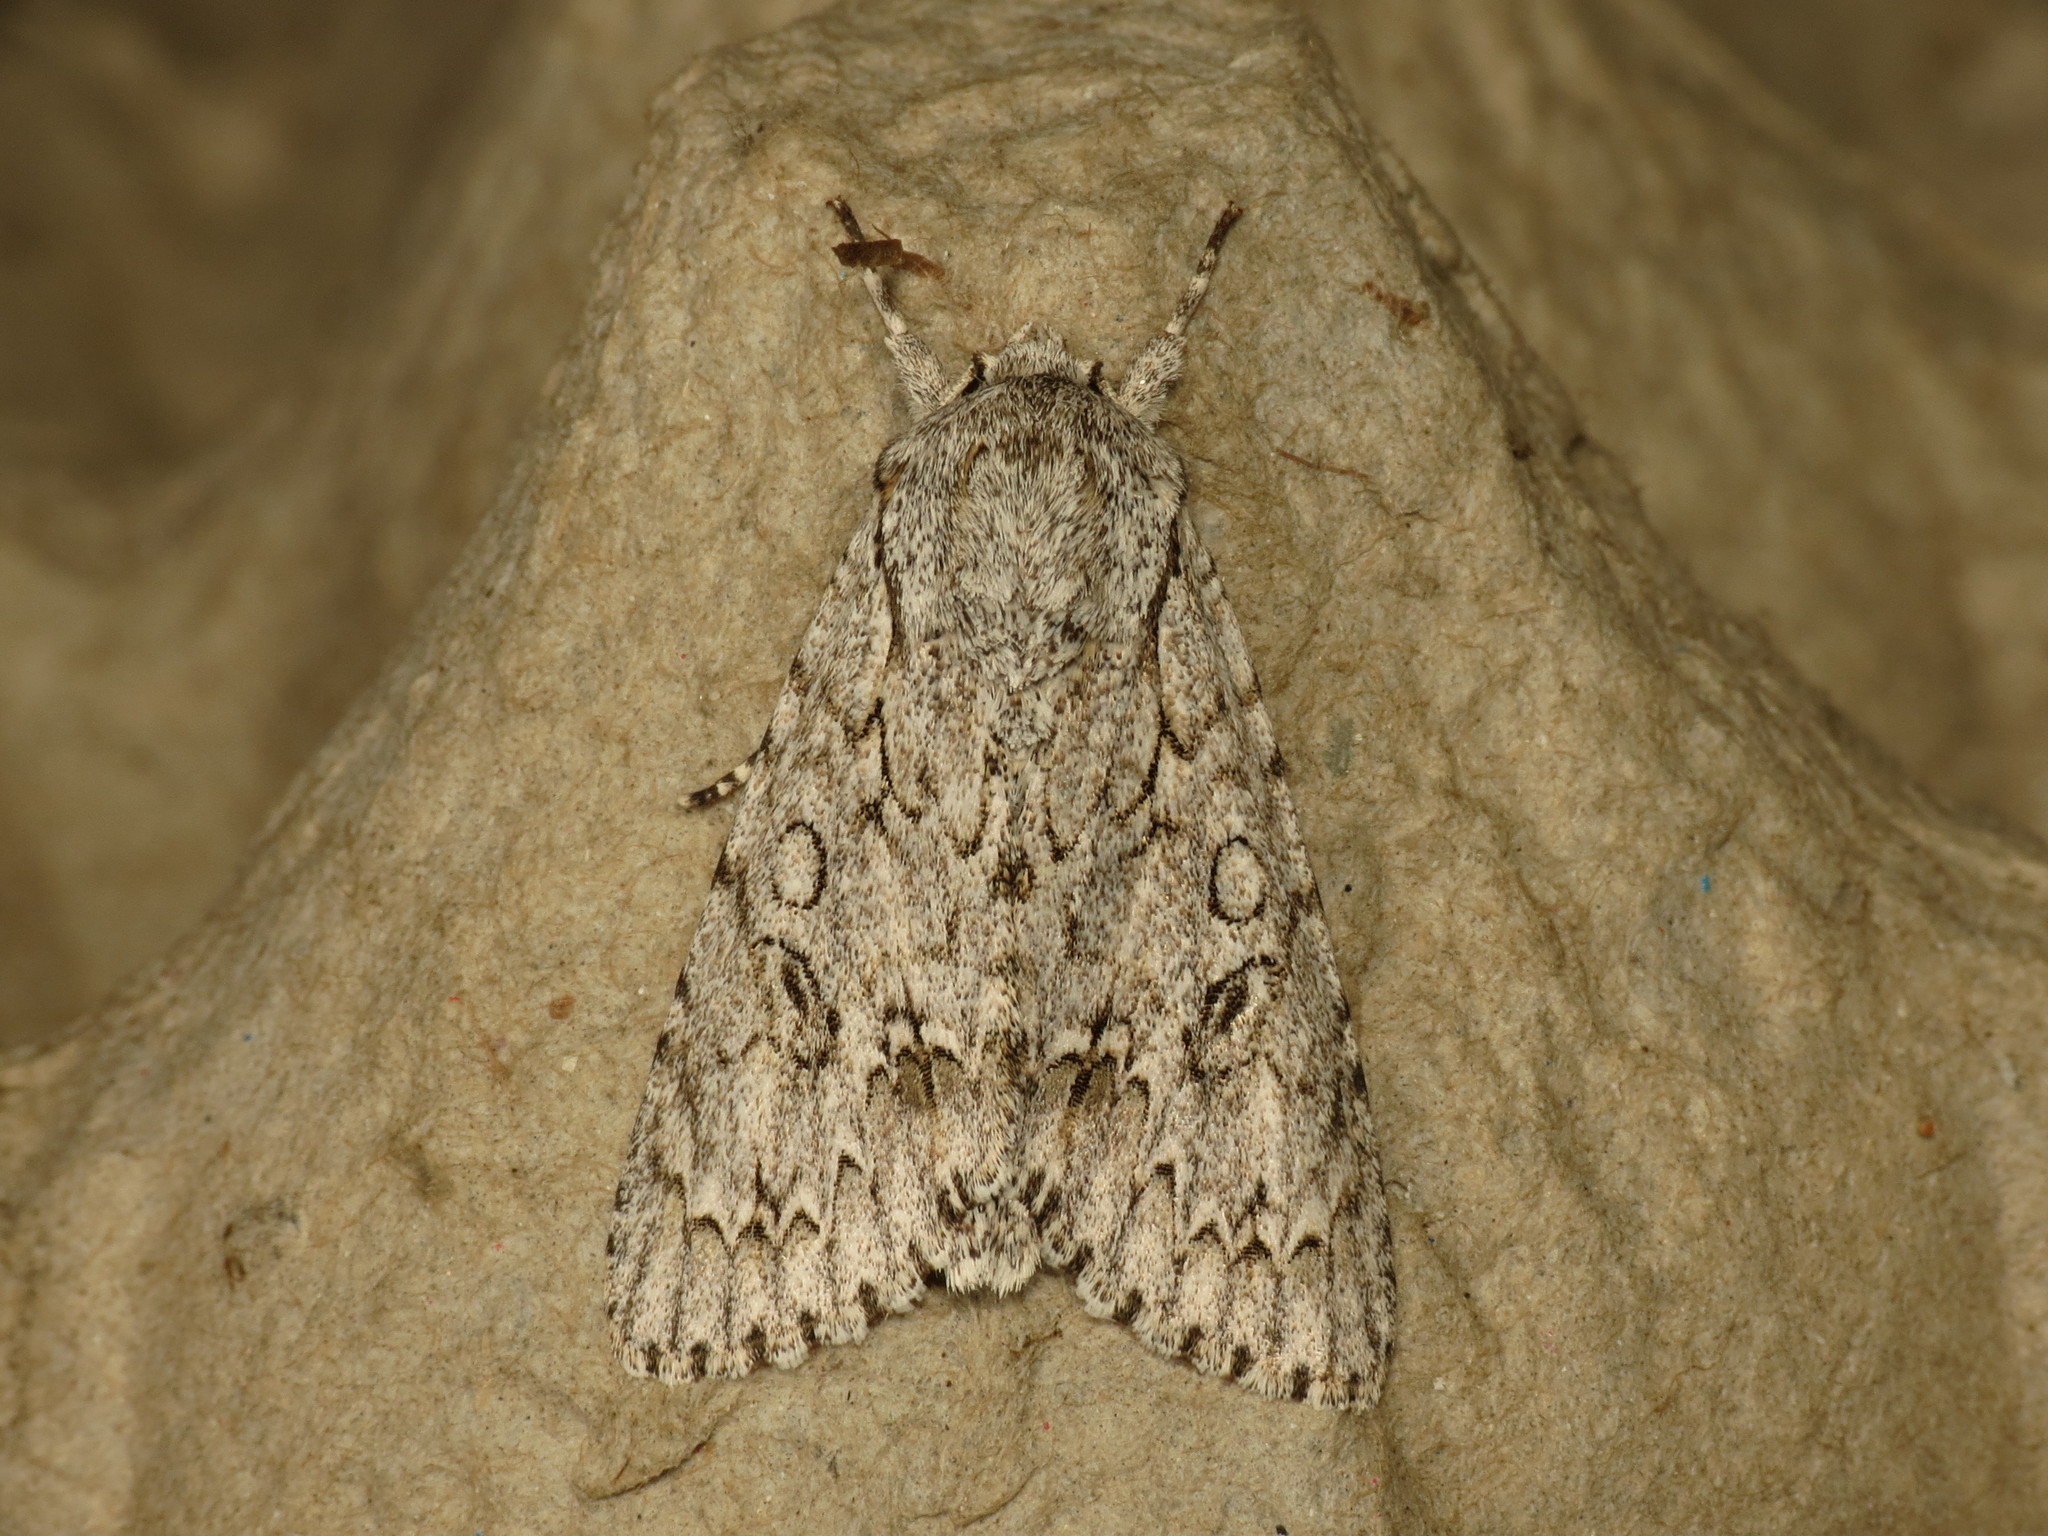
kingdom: Animalia
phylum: Arthropoda
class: Insecta
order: Lepidoptera
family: Noctuidae
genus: Acronicta
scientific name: Acronicta aceris
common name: Sycamore
